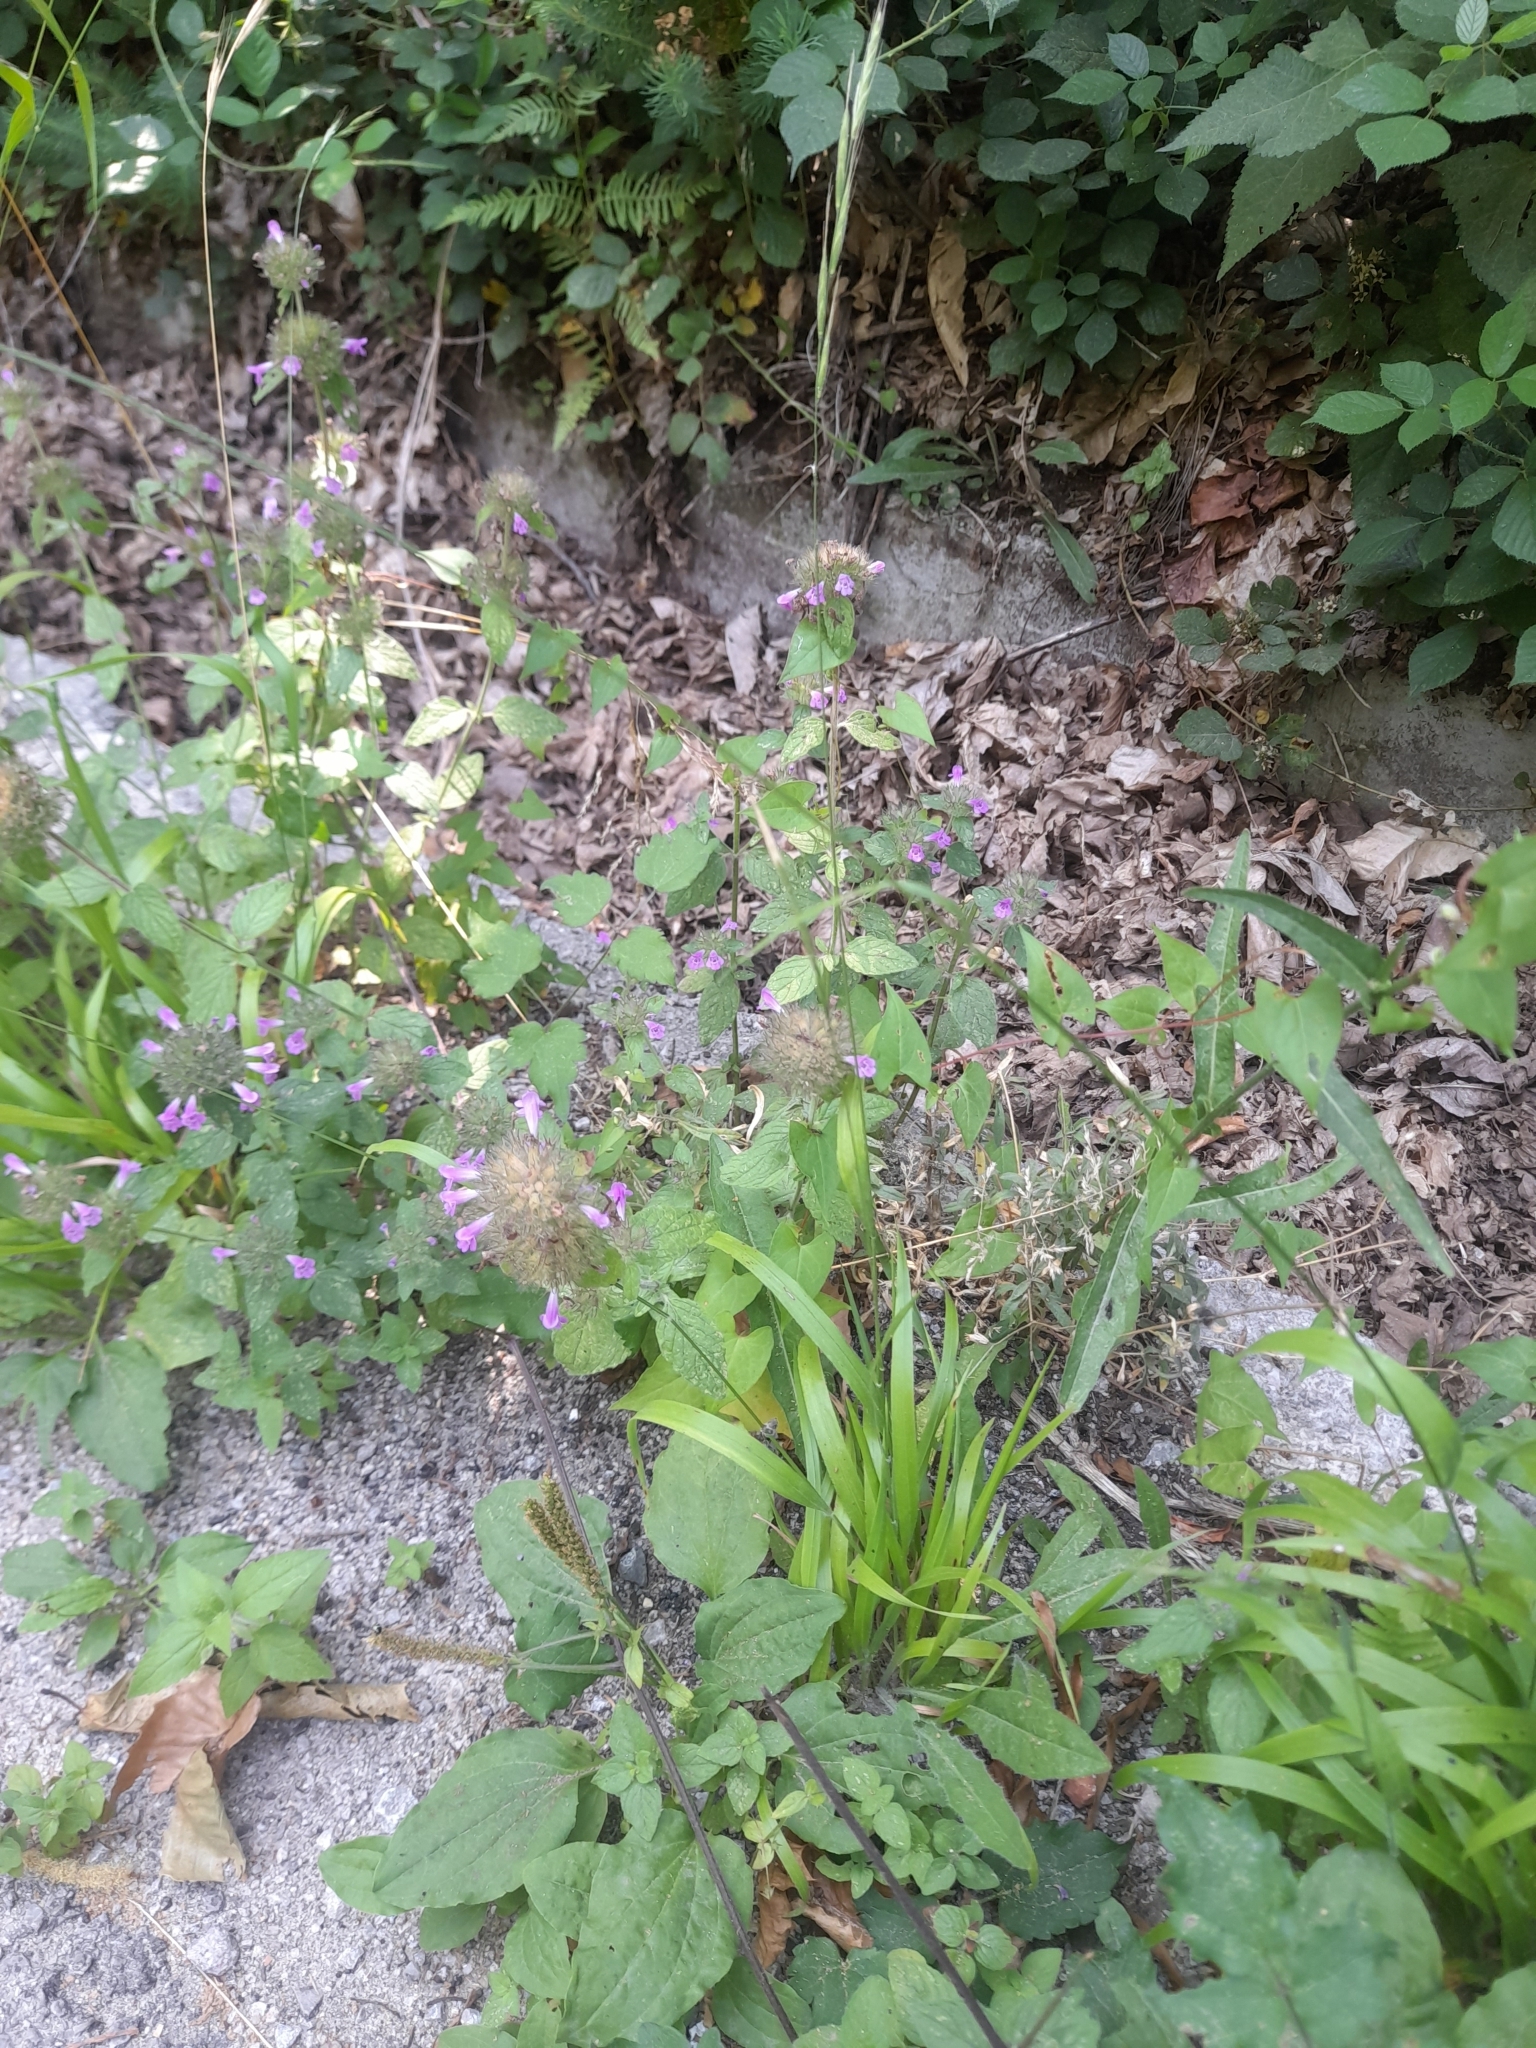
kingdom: Plantae
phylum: Tracheophyta
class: Magnoliopsida
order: Lamiales
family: Lamiaceae
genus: Clinopodium
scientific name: Clinopodium vulgare
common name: Wild basil
